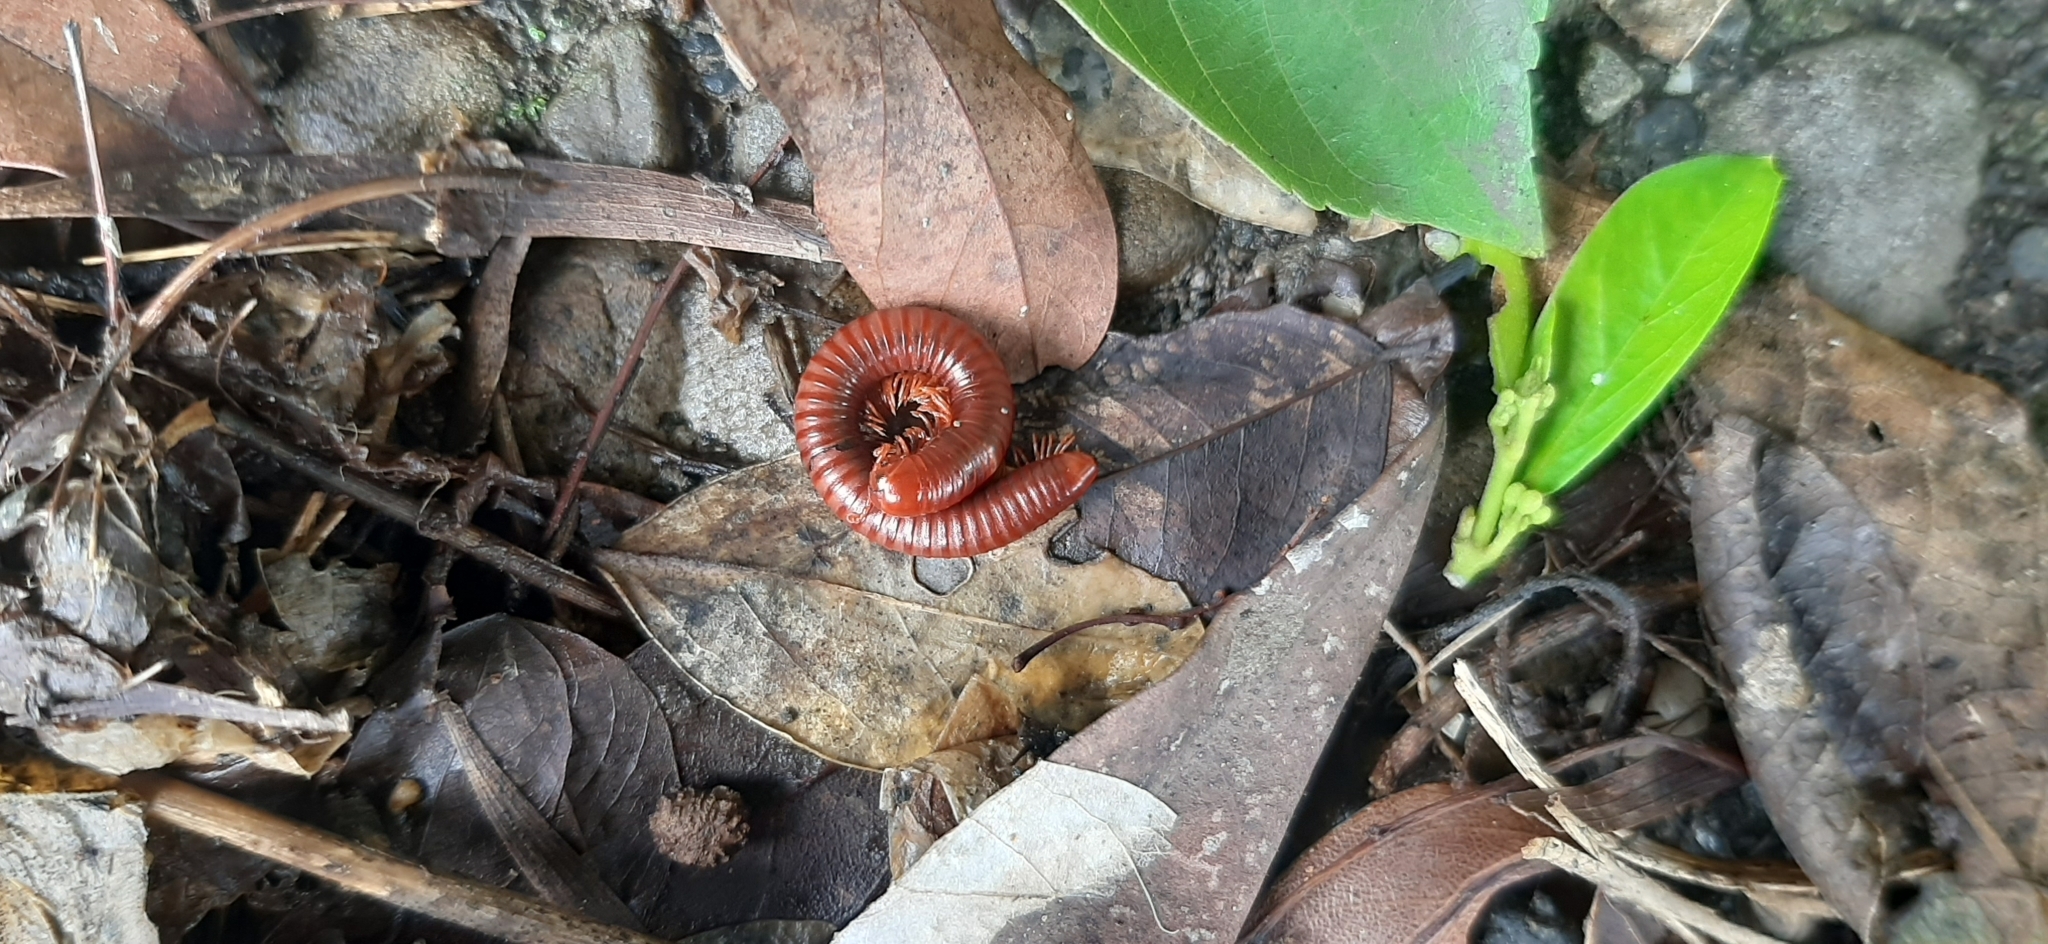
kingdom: Animalia
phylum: Arthropoda
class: Diplopoda
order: Spirobolida
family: Pachybolidae
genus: Trigoniulus
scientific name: Trigoniulus corallinus
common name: Millipede
